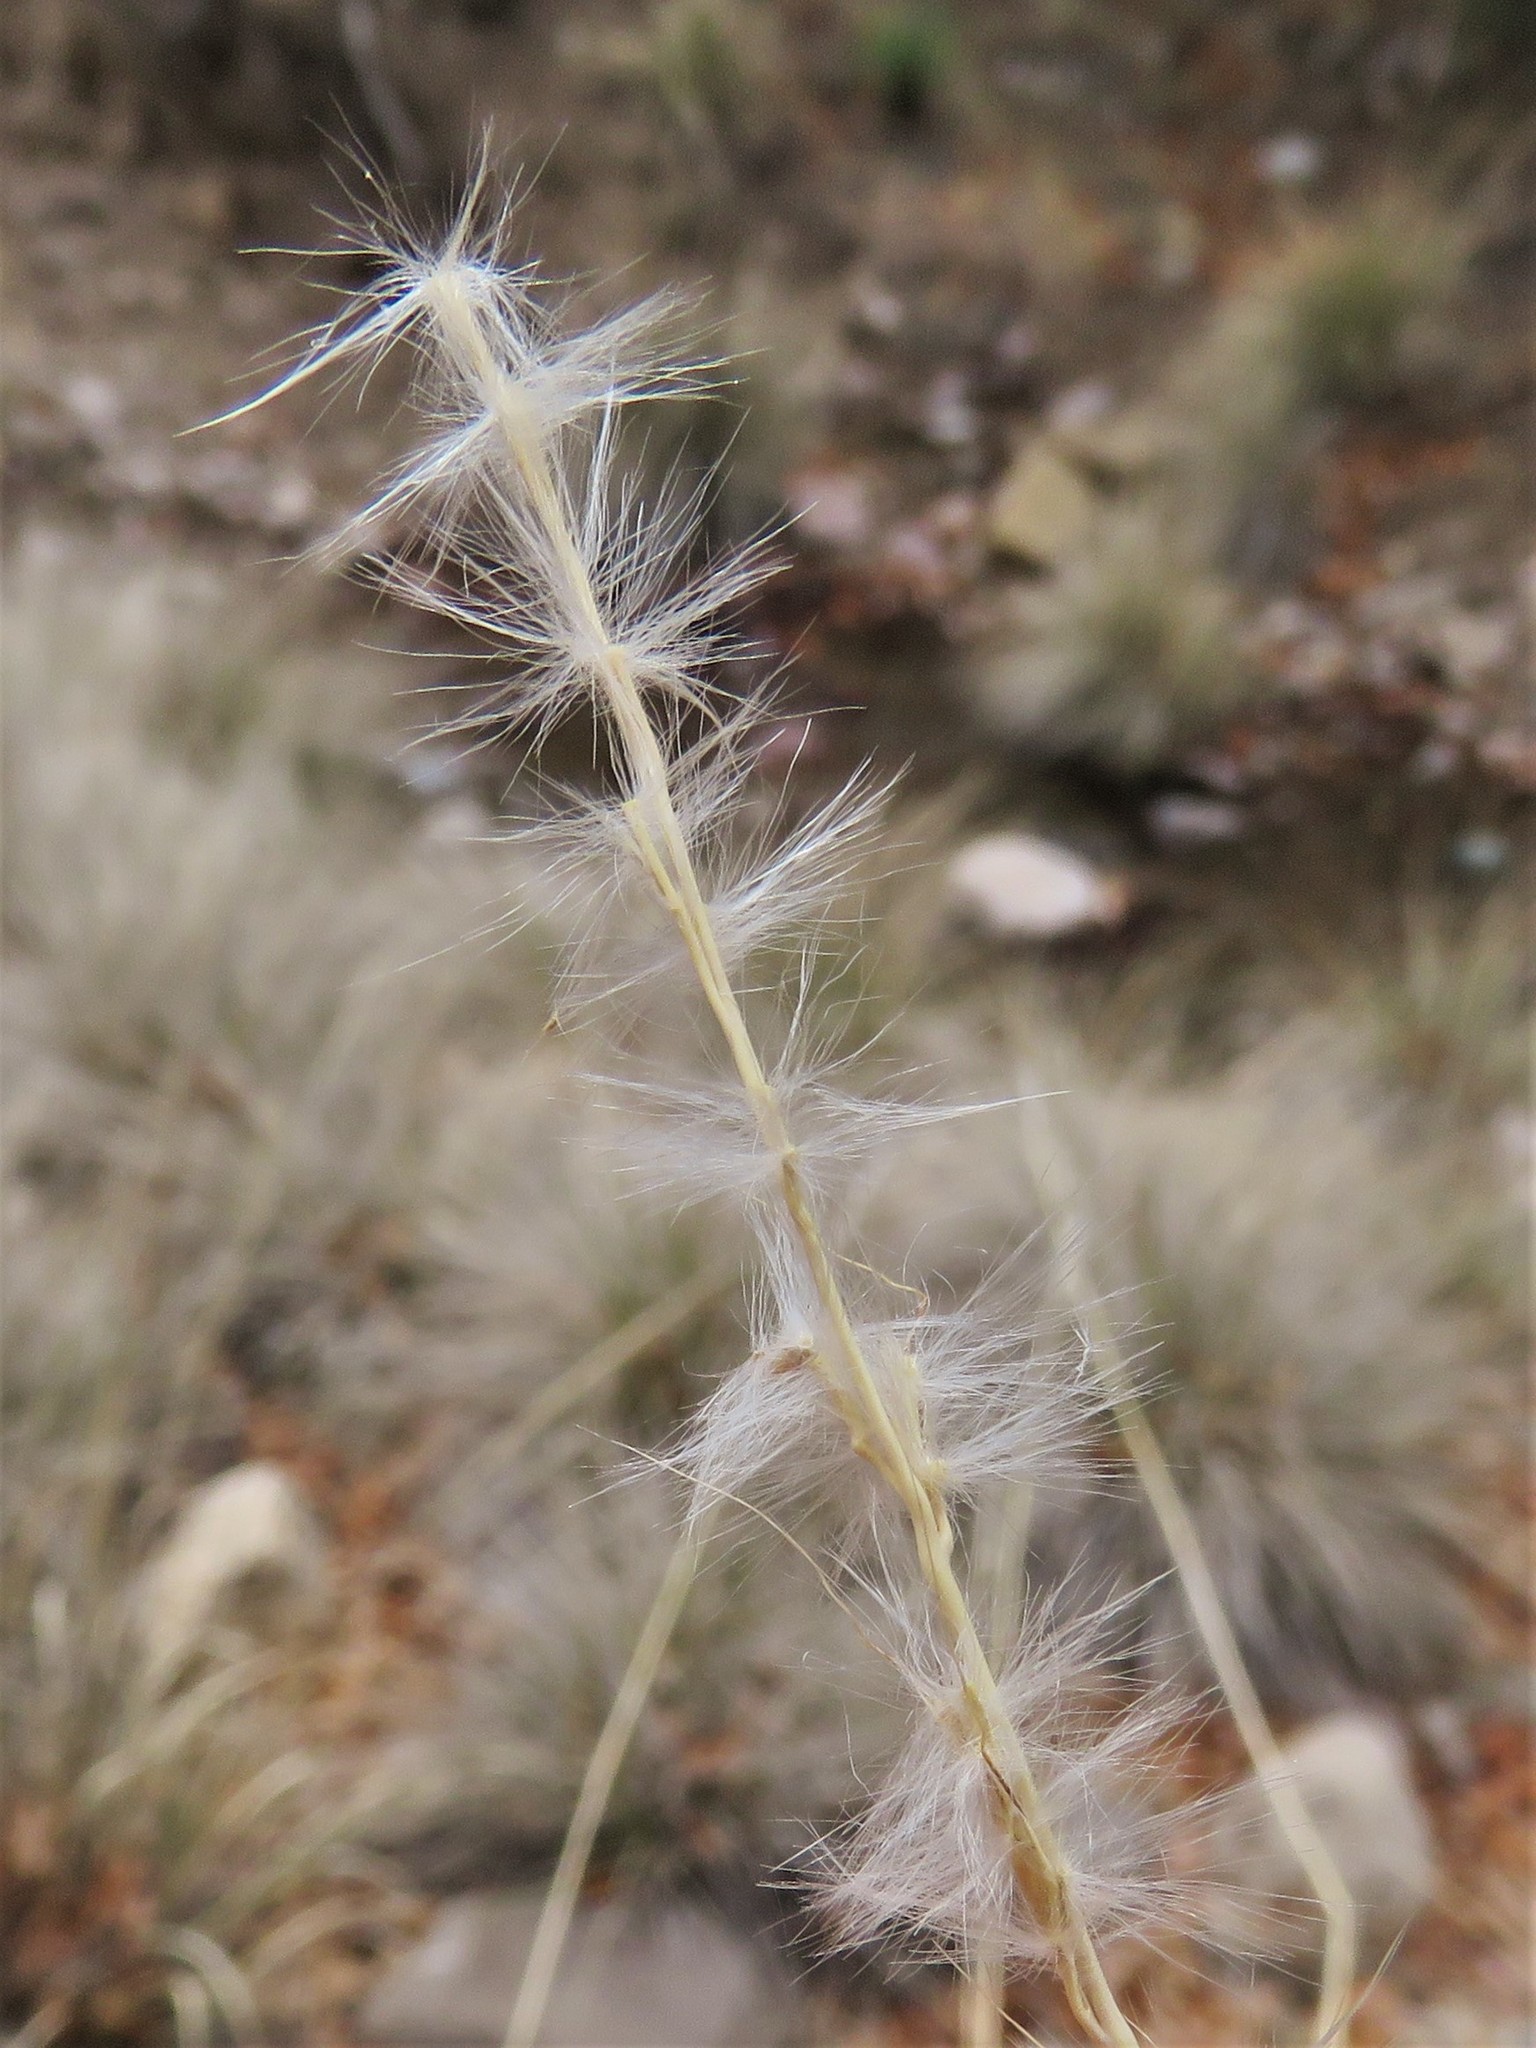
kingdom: Plantae
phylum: Tracheophyta
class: Liliopsida
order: Poales
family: Poaceae
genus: Bothriochloa
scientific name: Bothriochloa barbinodis
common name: Cane bluestem
